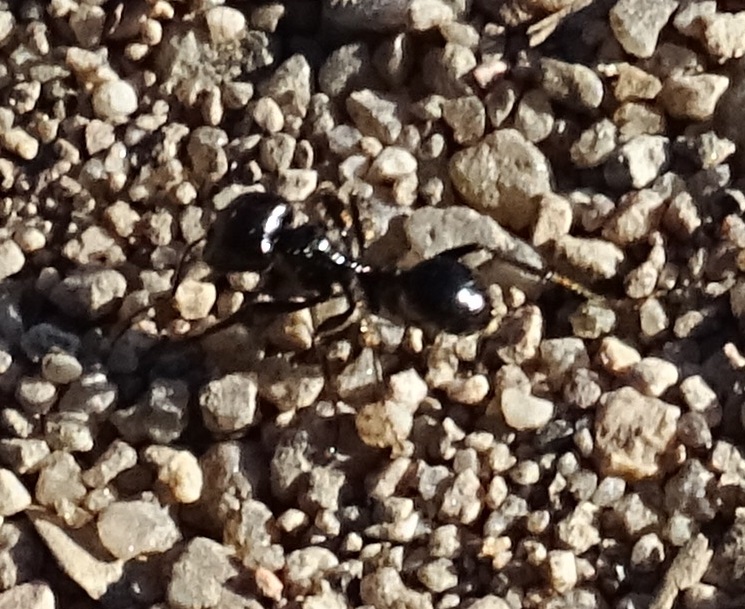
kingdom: Animalia
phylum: Arthropoda
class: Insecta
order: Hymenoptera
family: Formicidae
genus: Messor
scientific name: Messor barbarus
